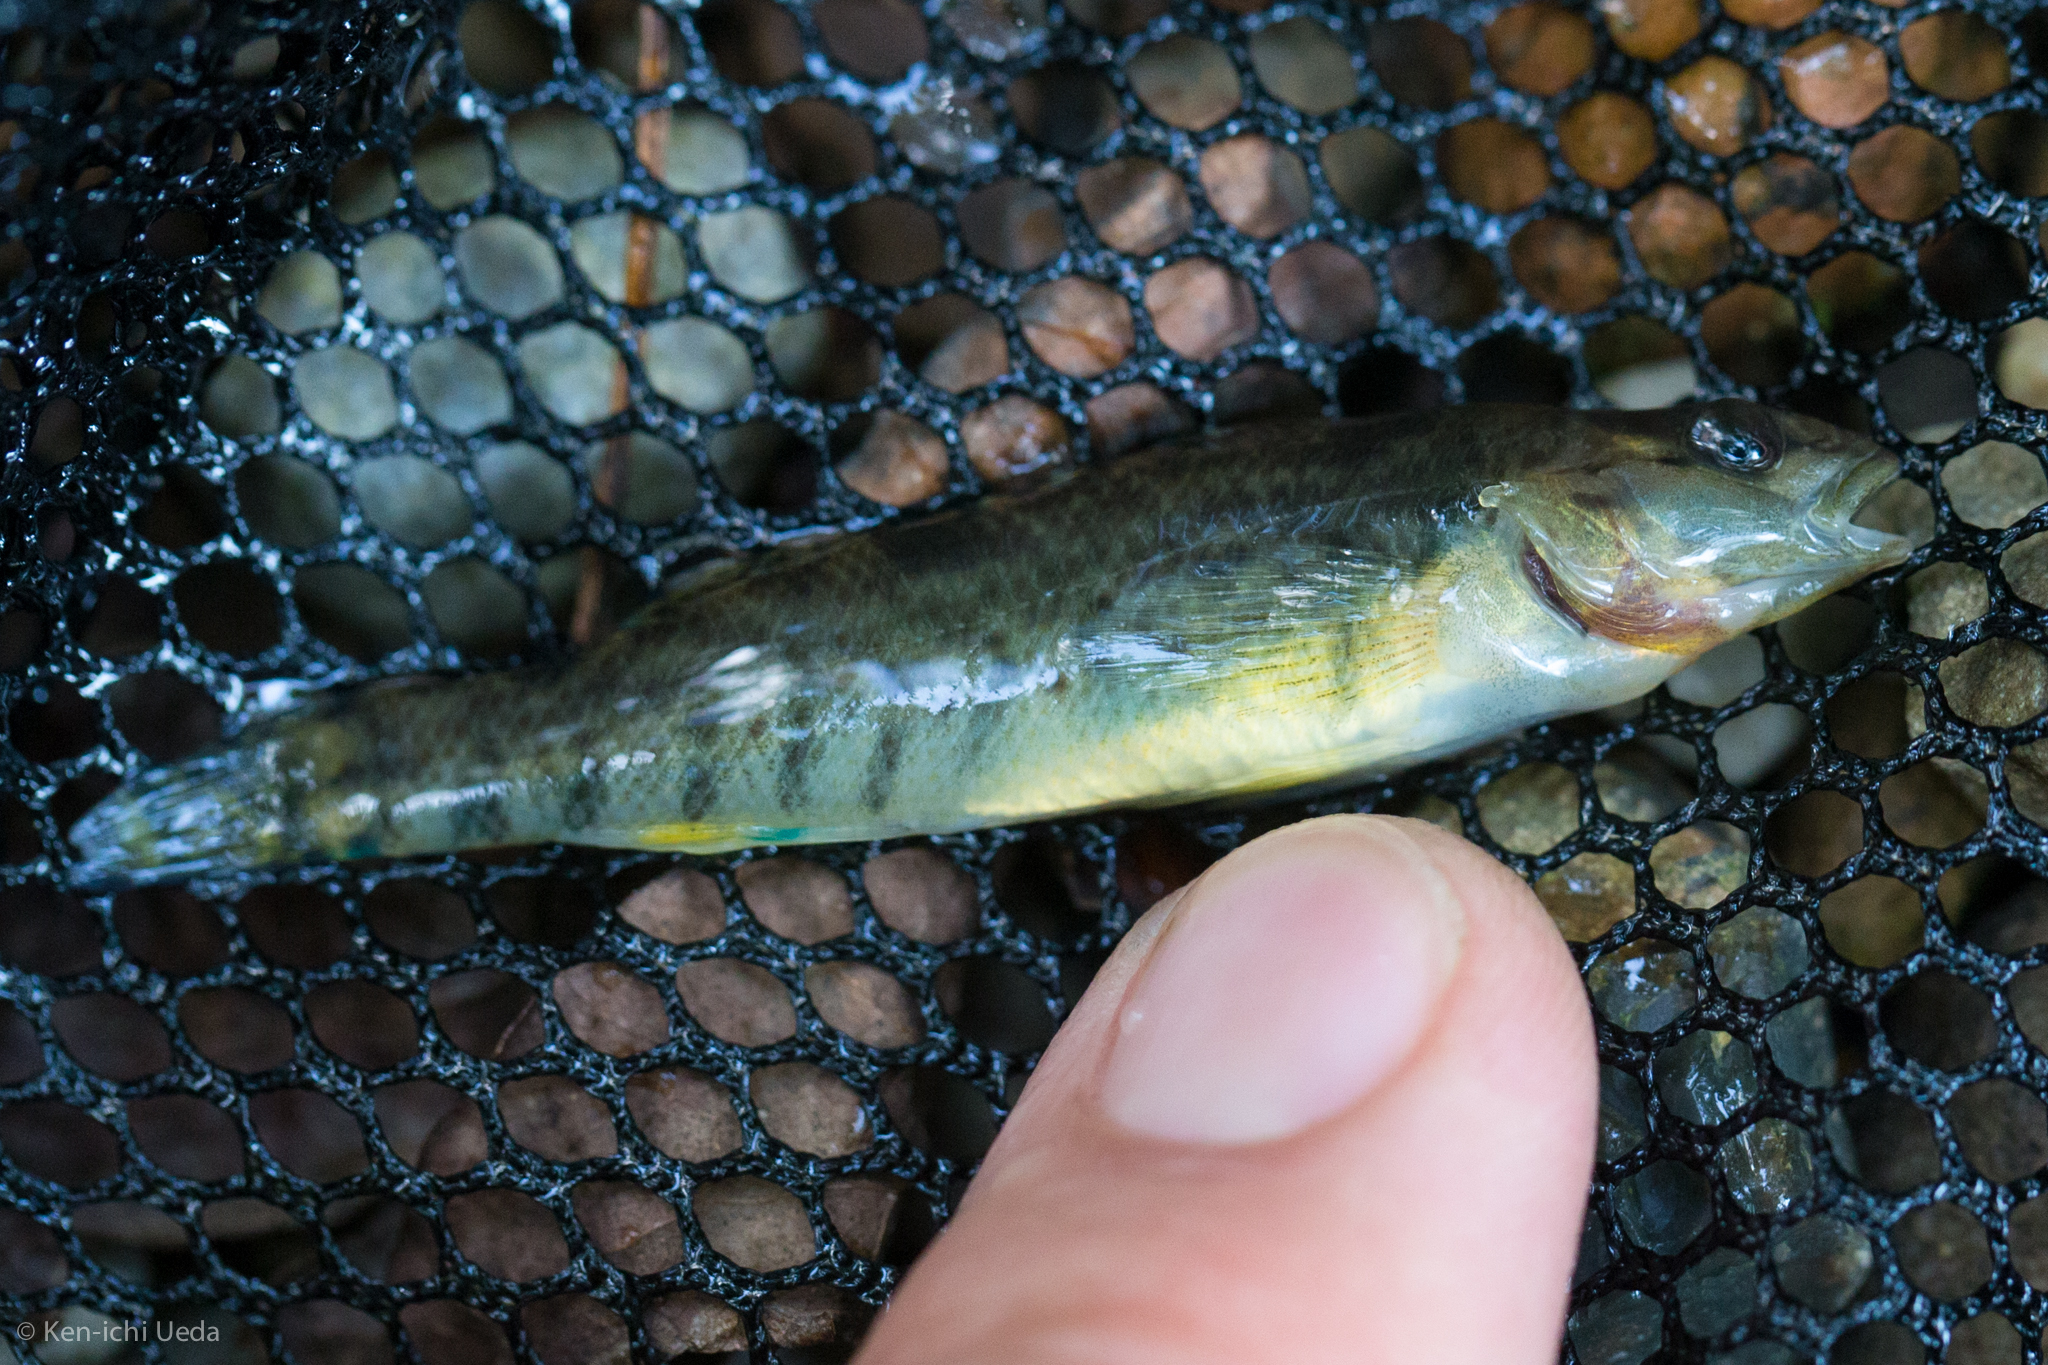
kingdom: Animalia
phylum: Chordata
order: Perciformes
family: Percidae
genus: Etheostoma
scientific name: Etheostoma caeruleum
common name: Rainbow darter
